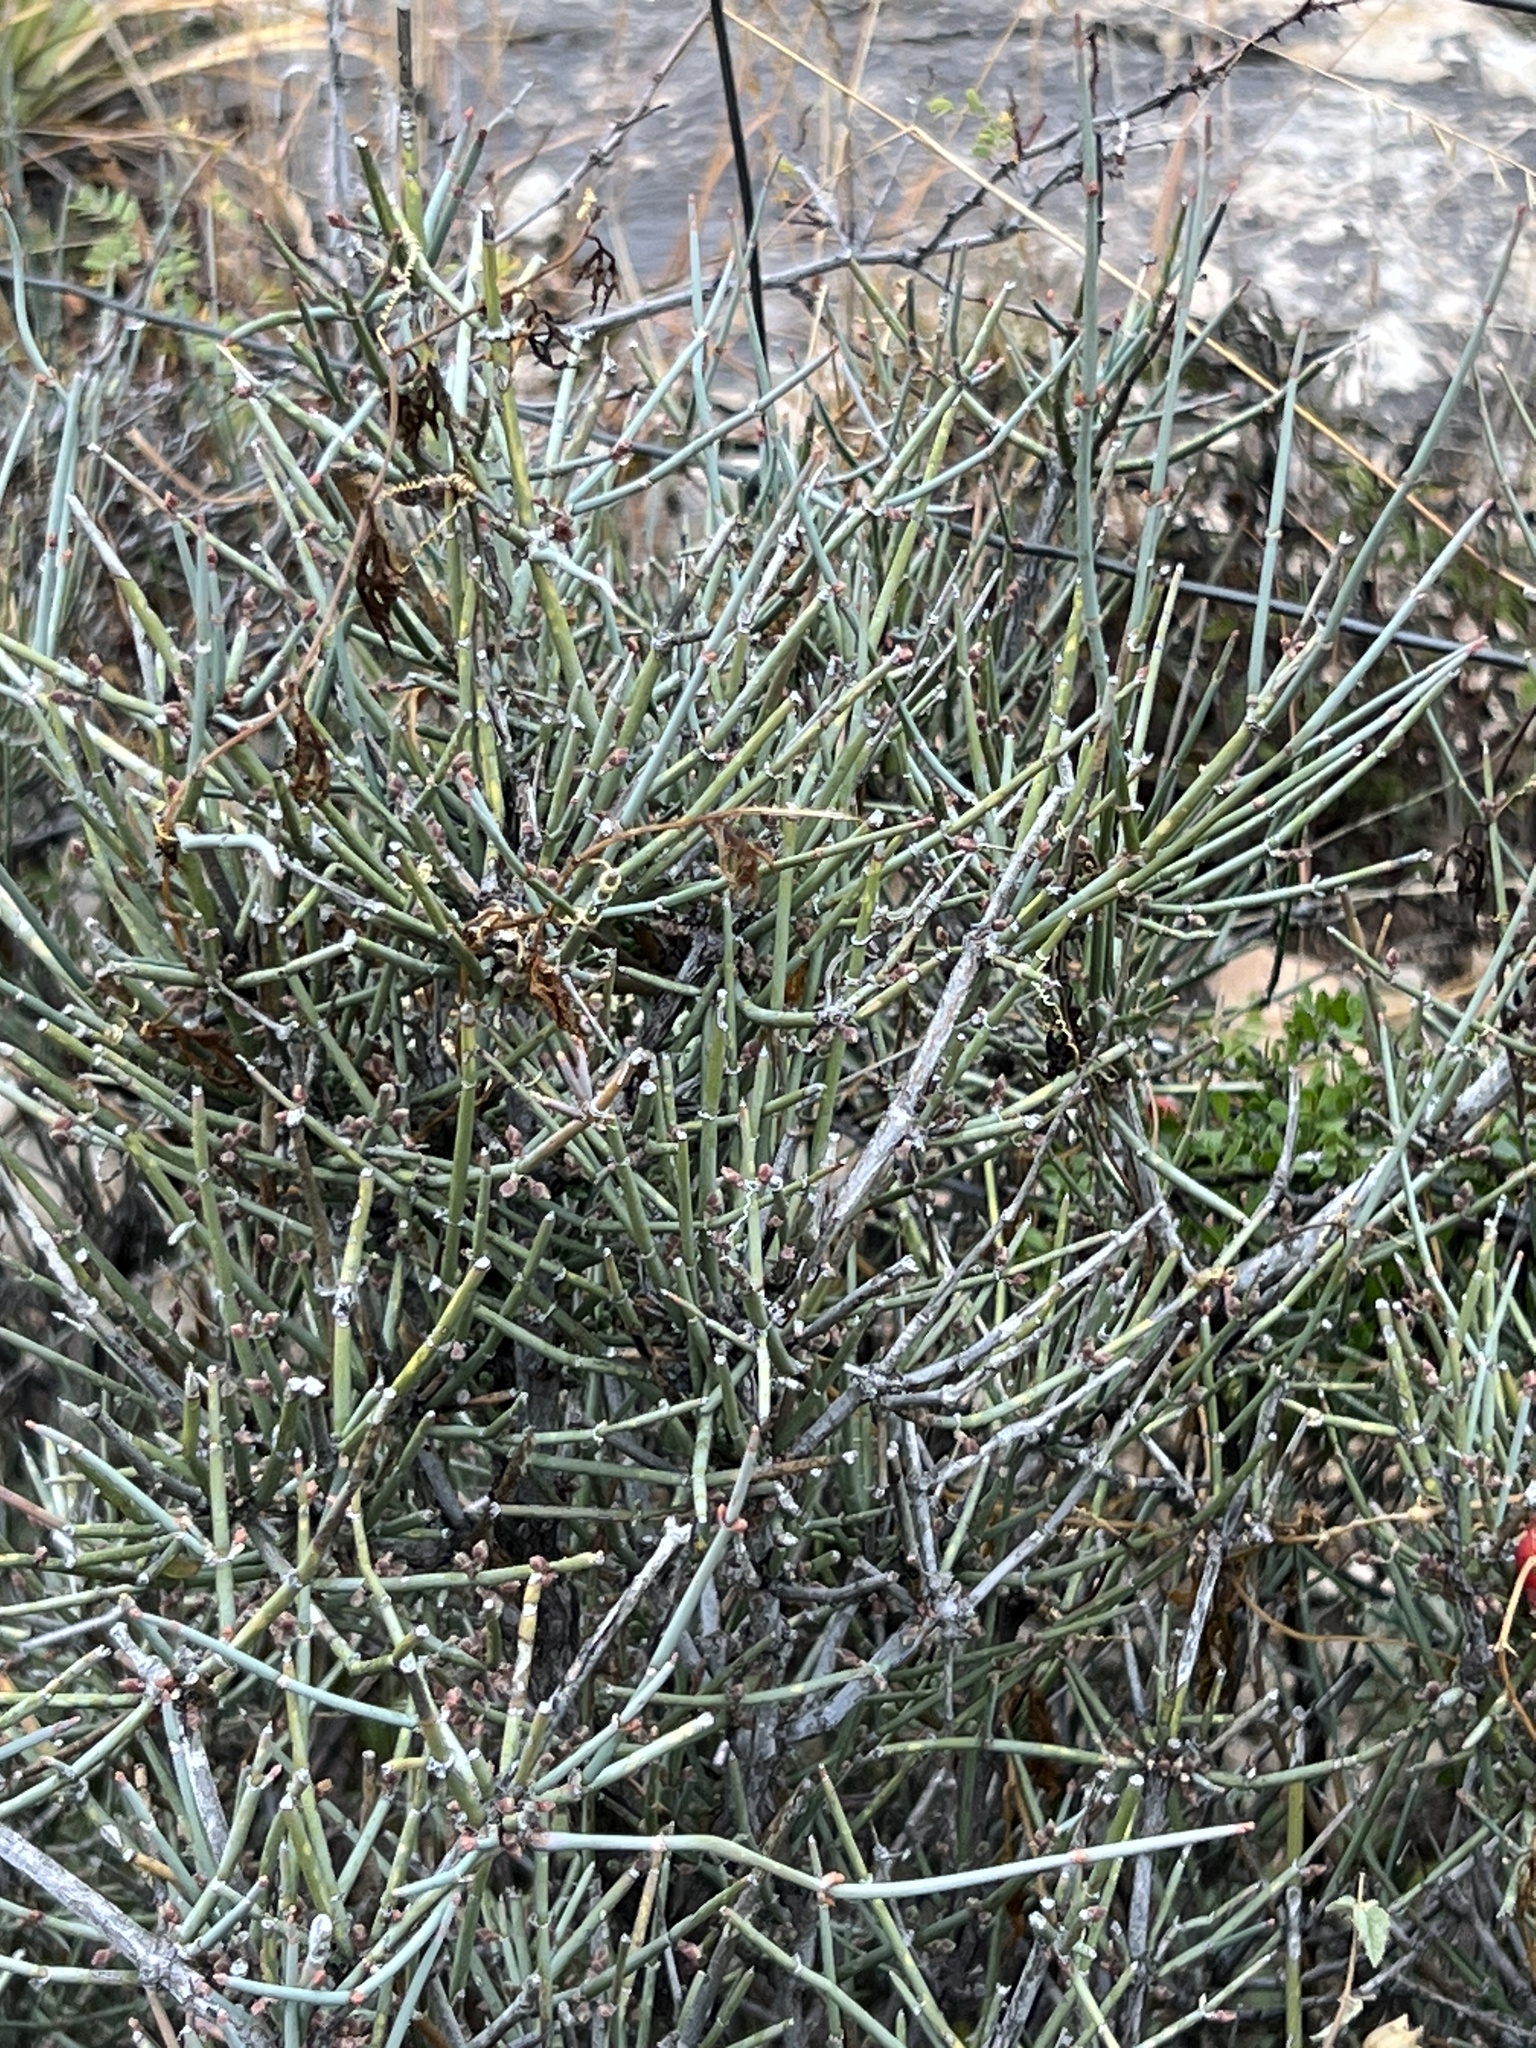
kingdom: Plantae
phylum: Tracheophyta
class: Gnetopsida
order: Ephedrales
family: Ephedraceae
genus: Ephedra
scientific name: Ephedra antisyphilitica
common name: Clipweed
